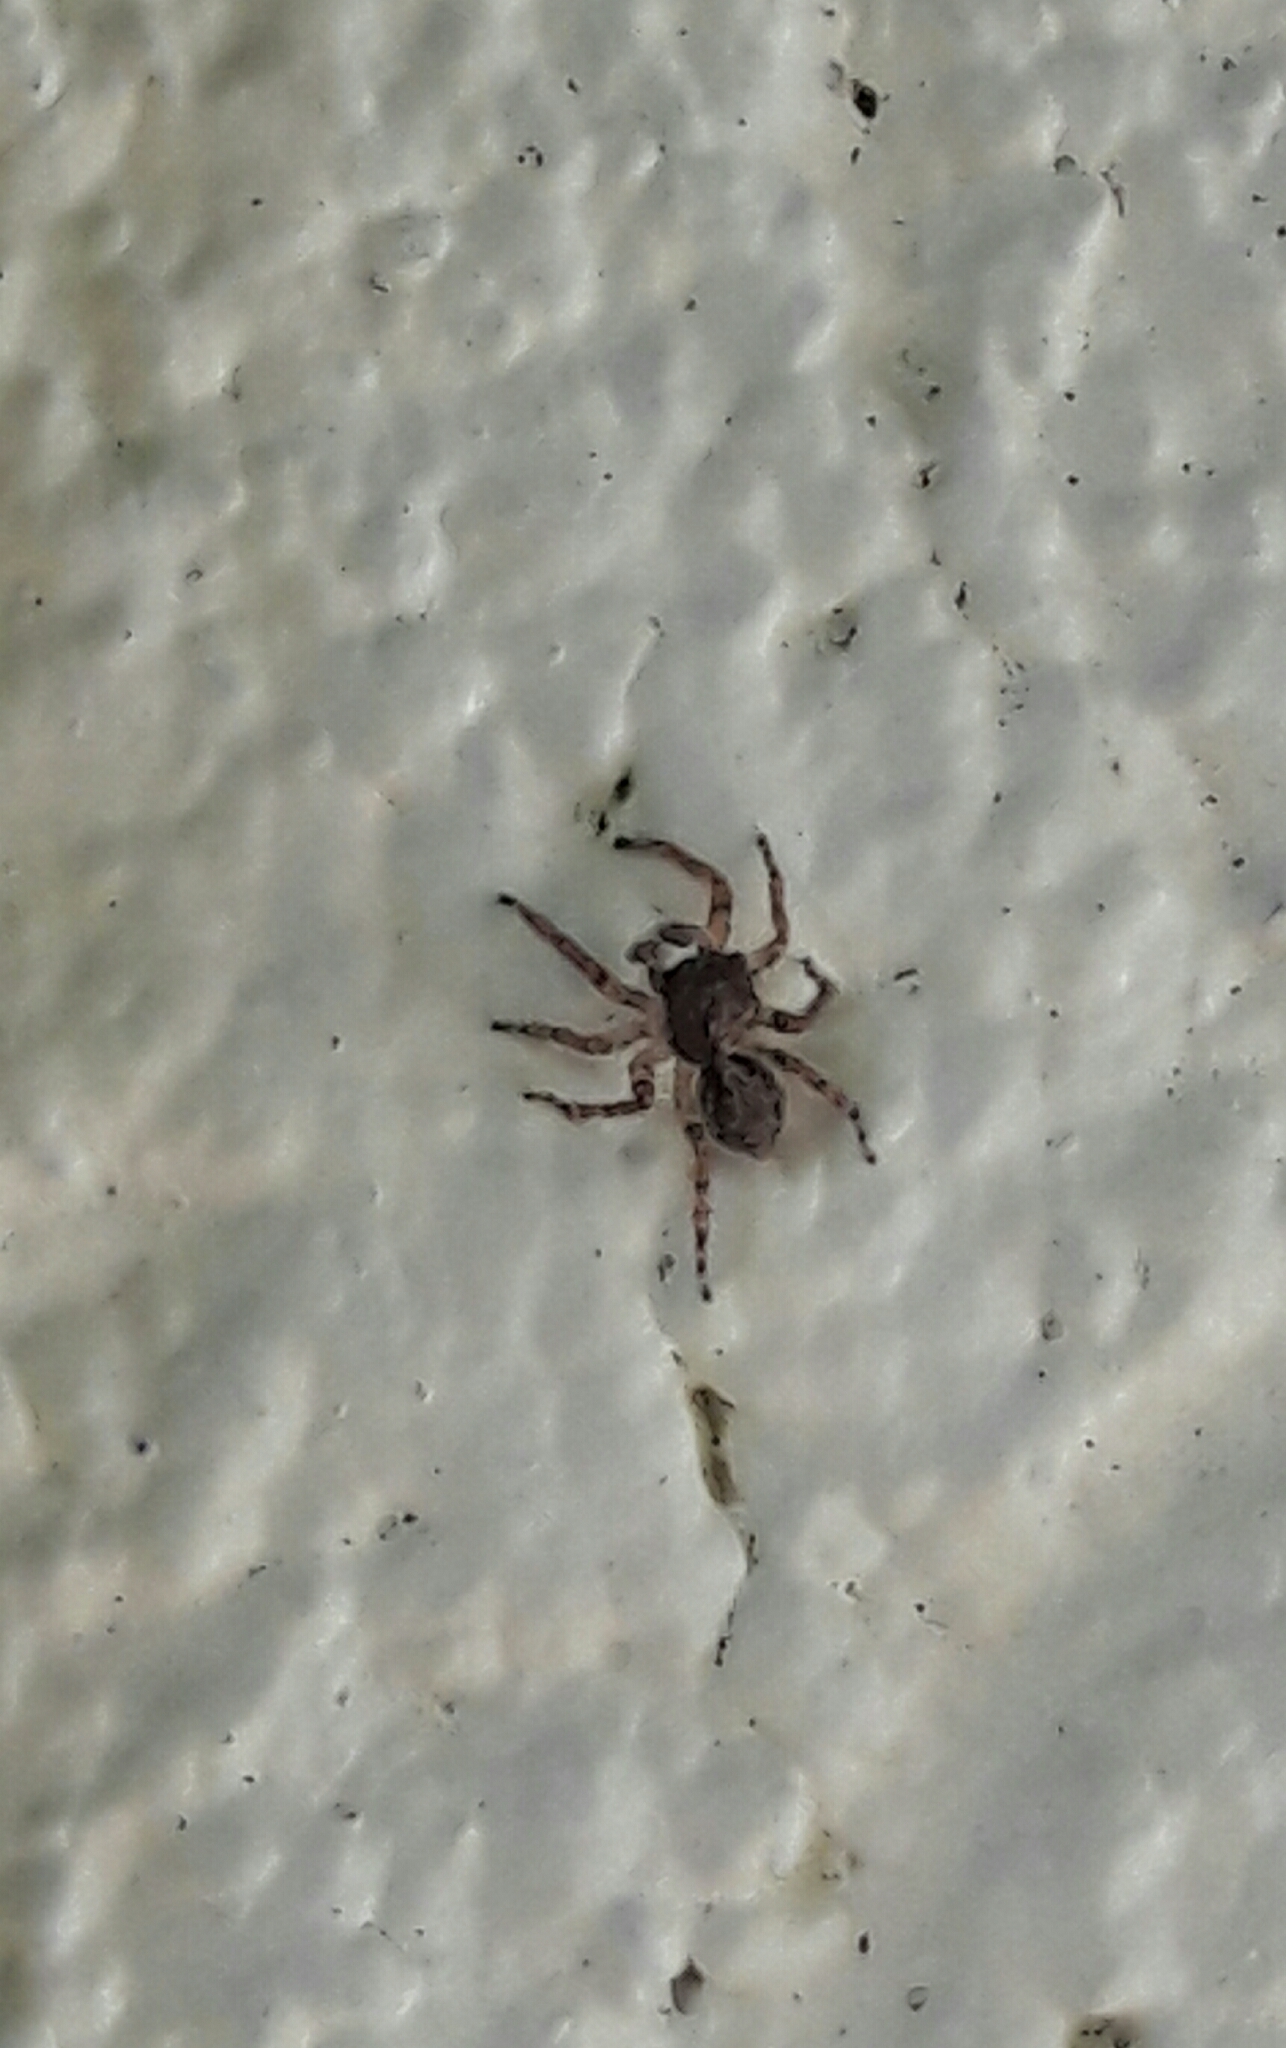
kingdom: Animalia
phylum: Arthropoda
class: Arachnida
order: Araneae
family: Salticidae
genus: Marma
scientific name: Marma nigritarsis
